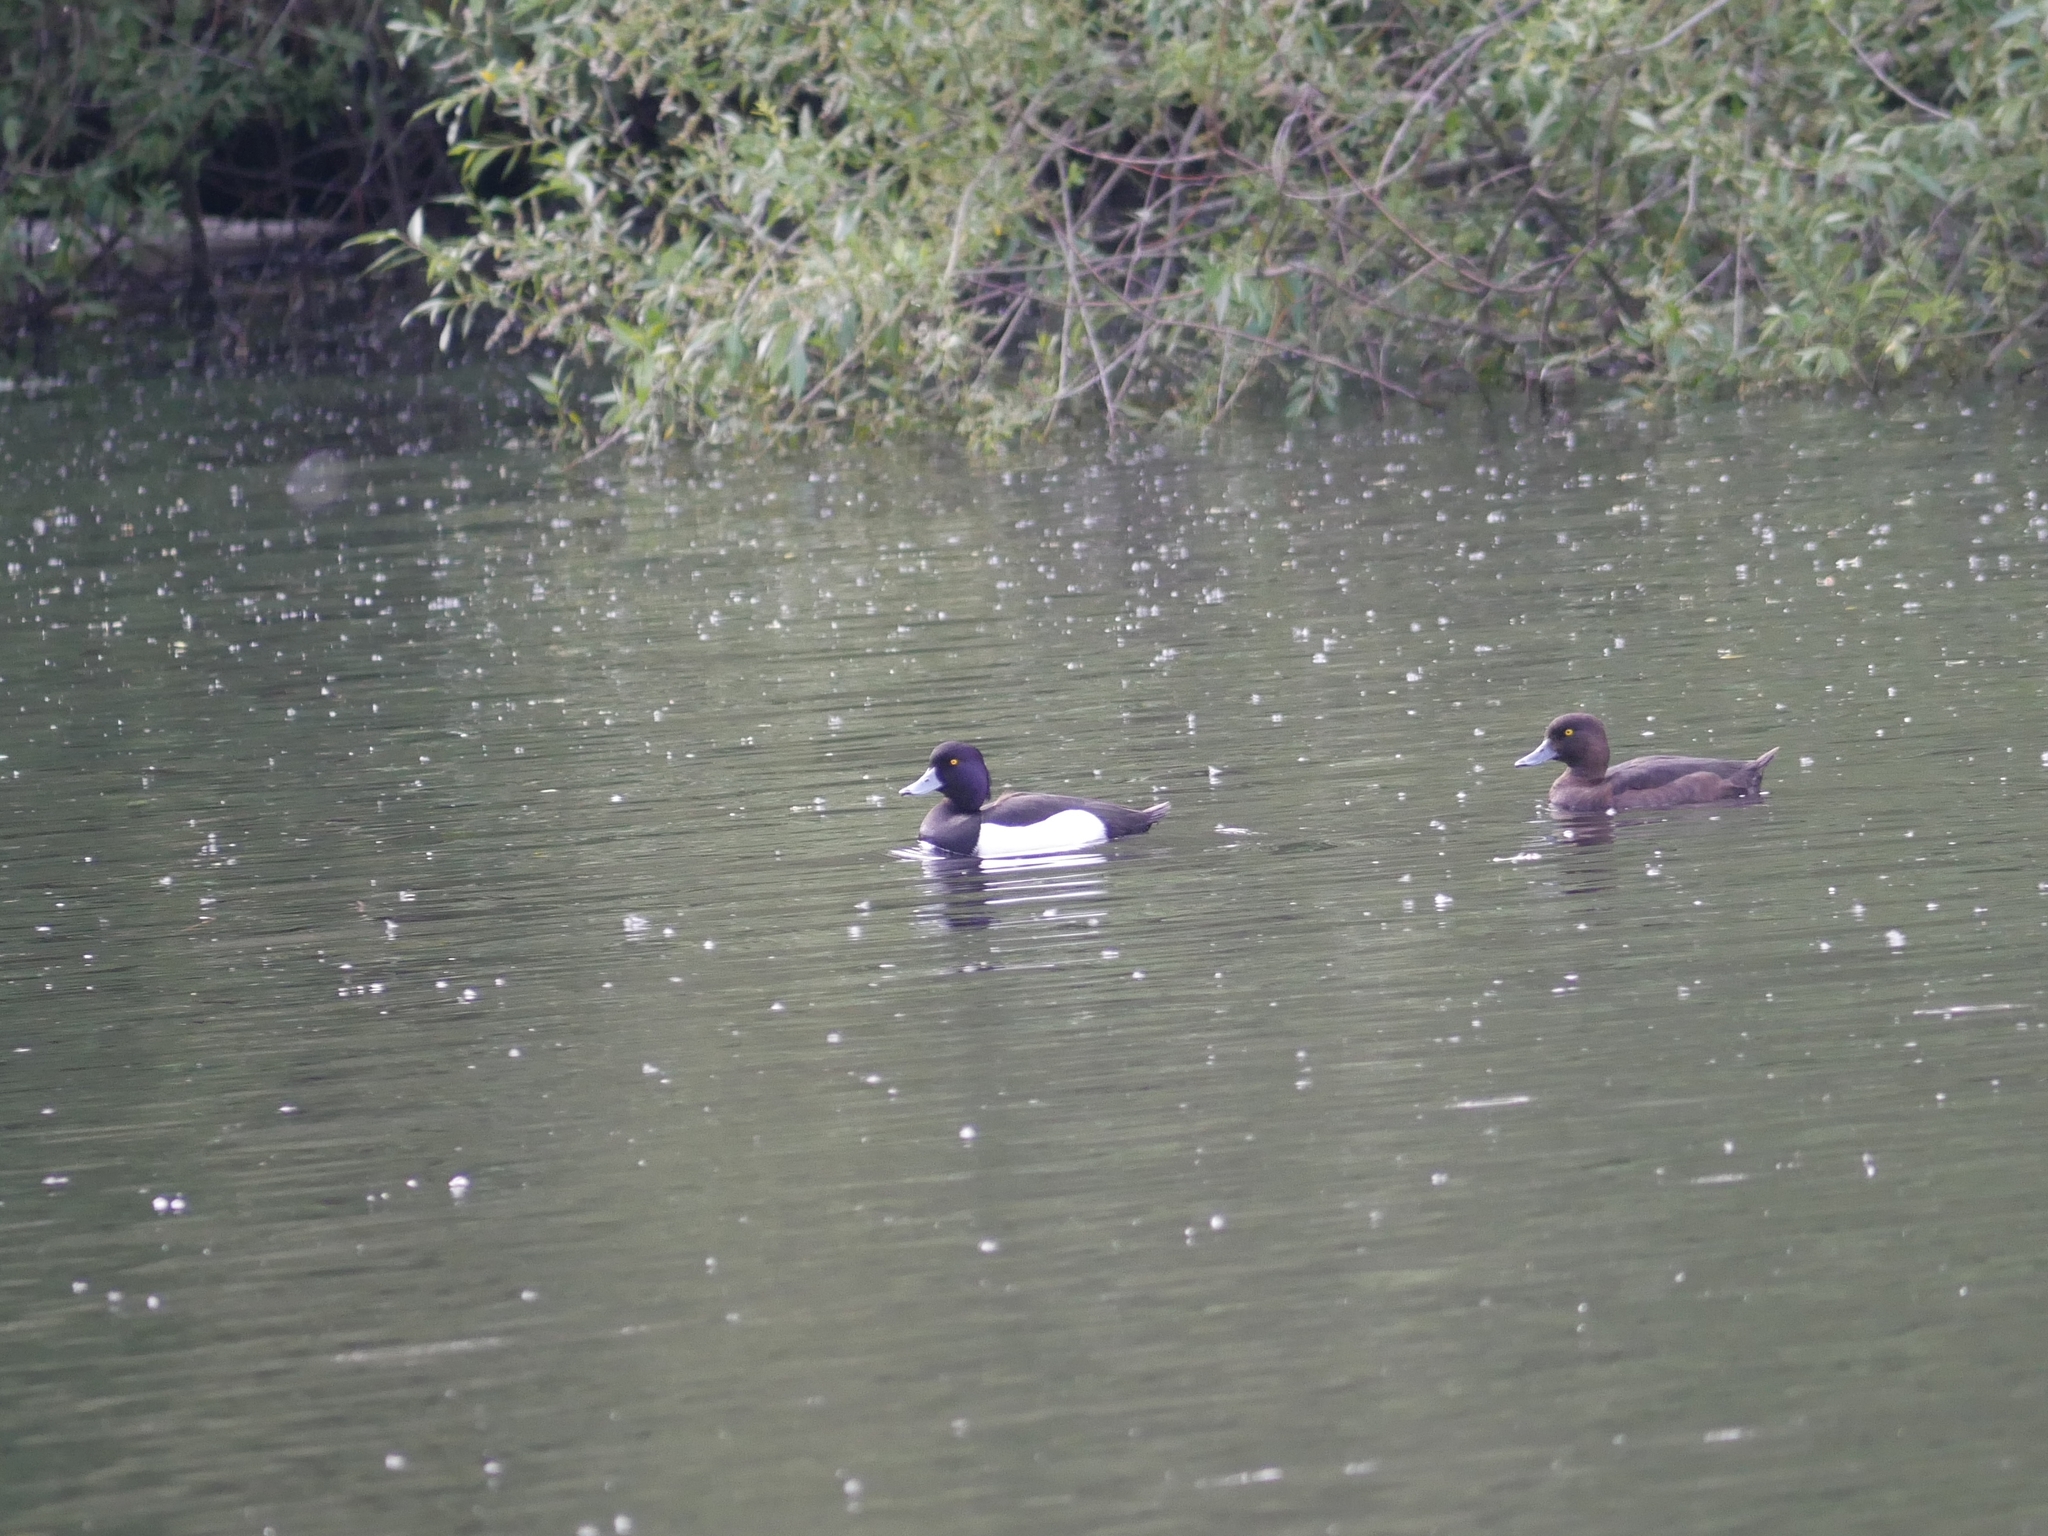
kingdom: Animalia
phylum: Chordata
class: Aves
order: Anseriformes
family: Anatidae
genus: Aythya
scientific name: Aythya fuligula
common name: Tufted duck
